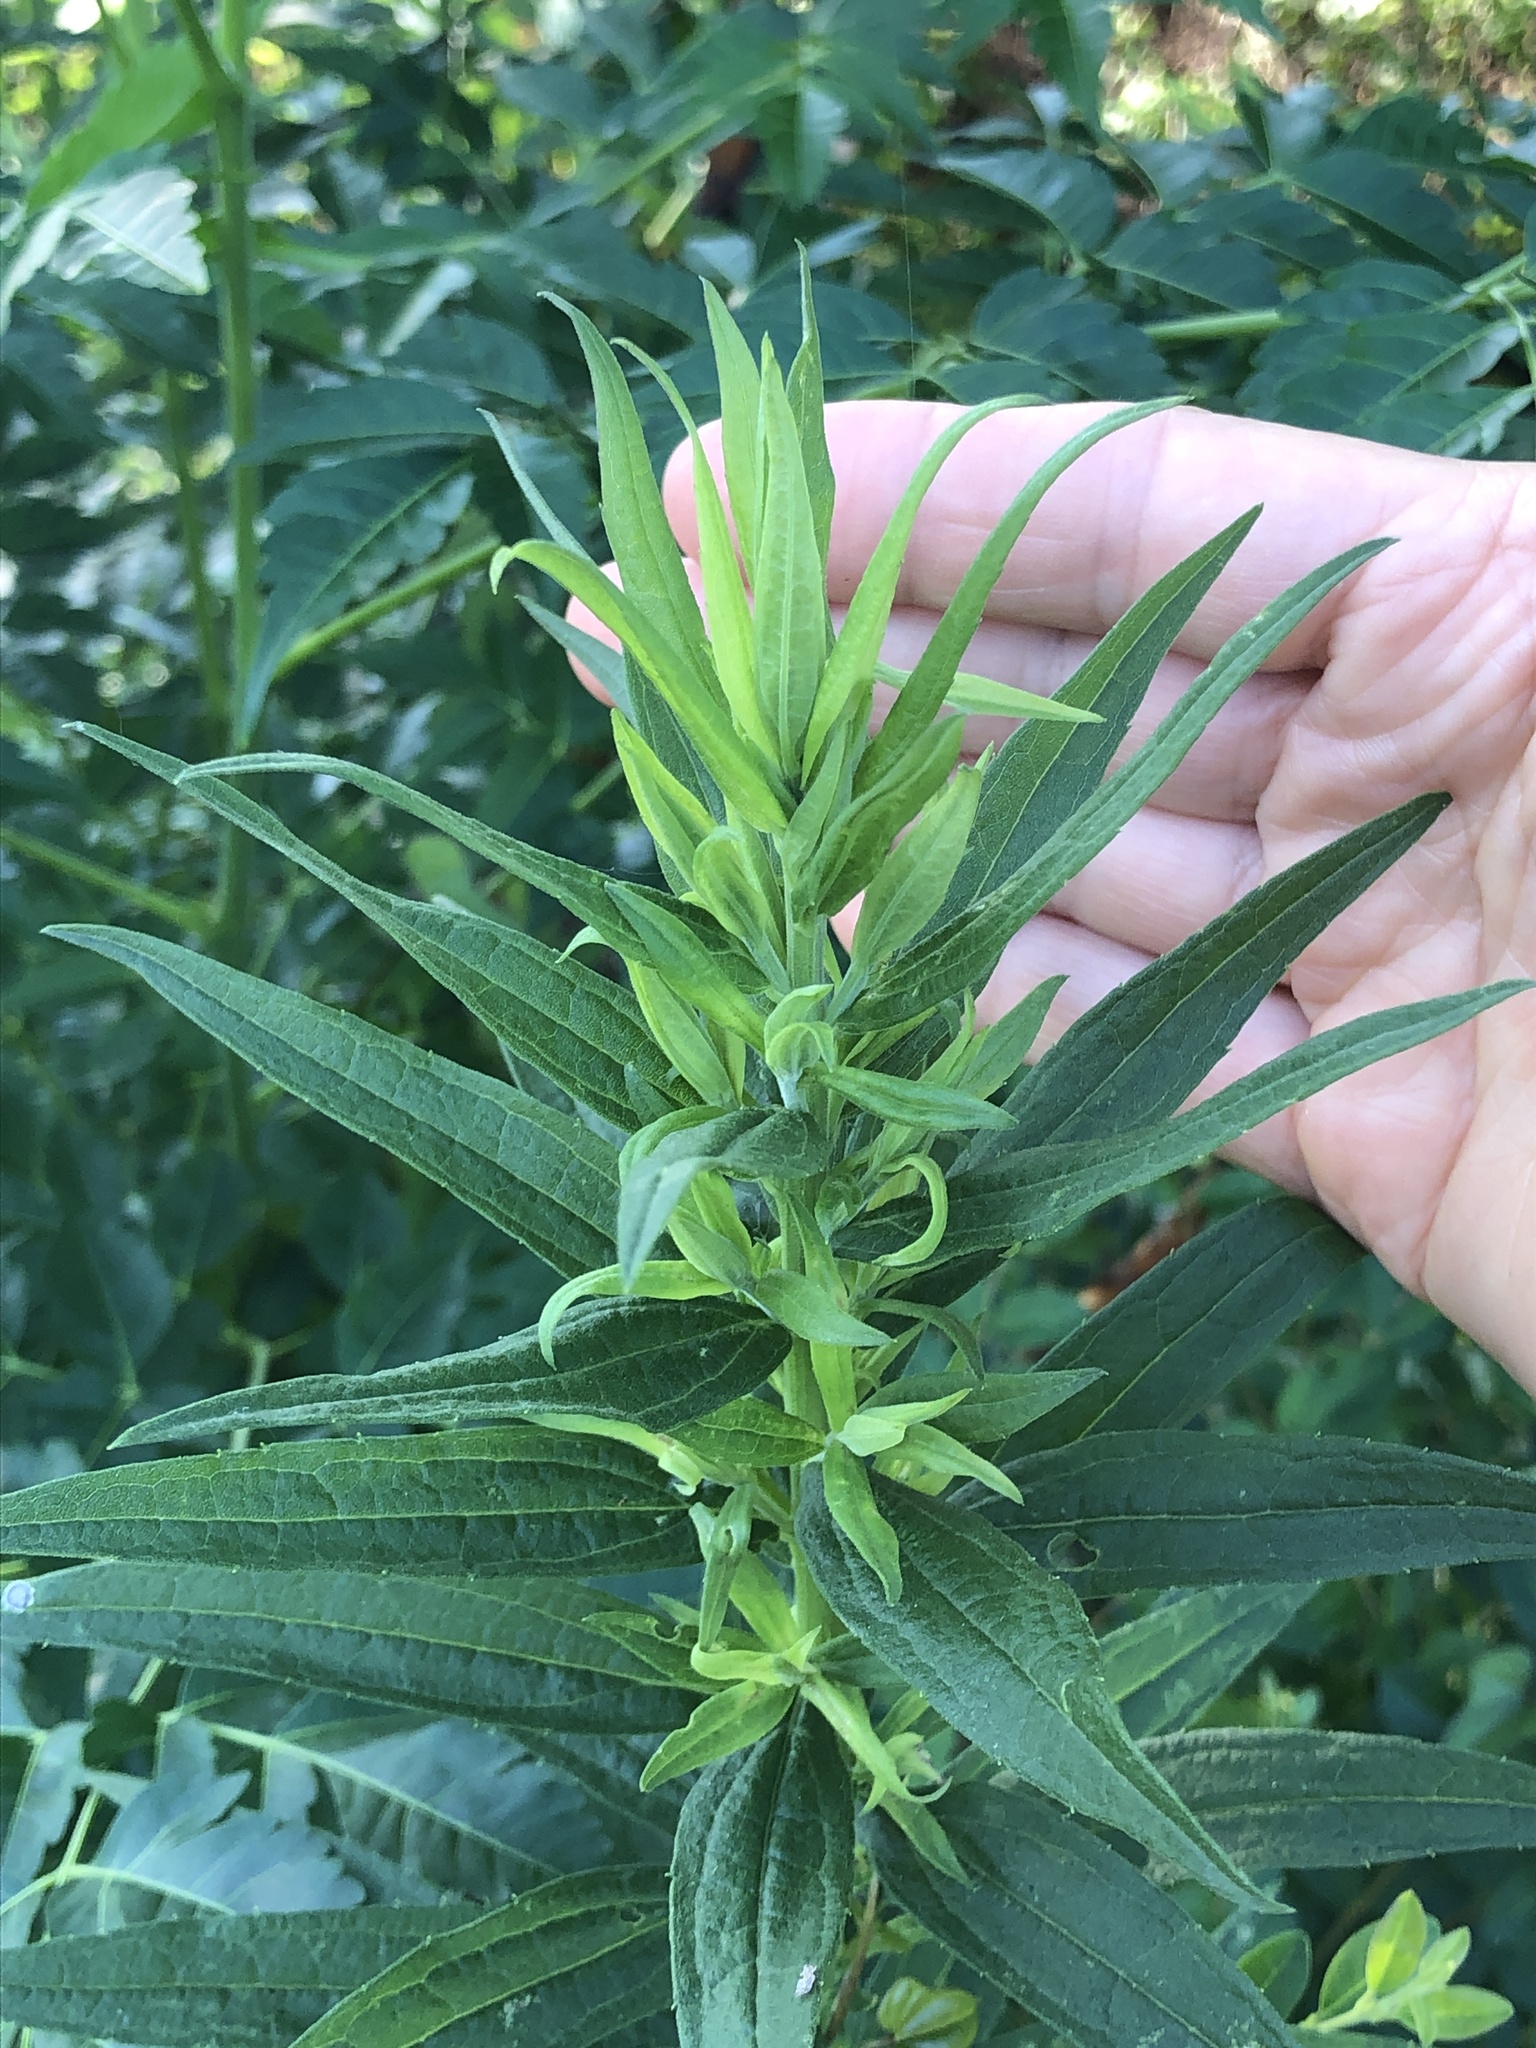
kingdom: Plantae
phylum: Tracheophyta
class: Magnoliopsida
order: Asterales
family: Asteraceae
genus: Solidago
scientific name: Solidago altissima
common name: Late goldenrod
